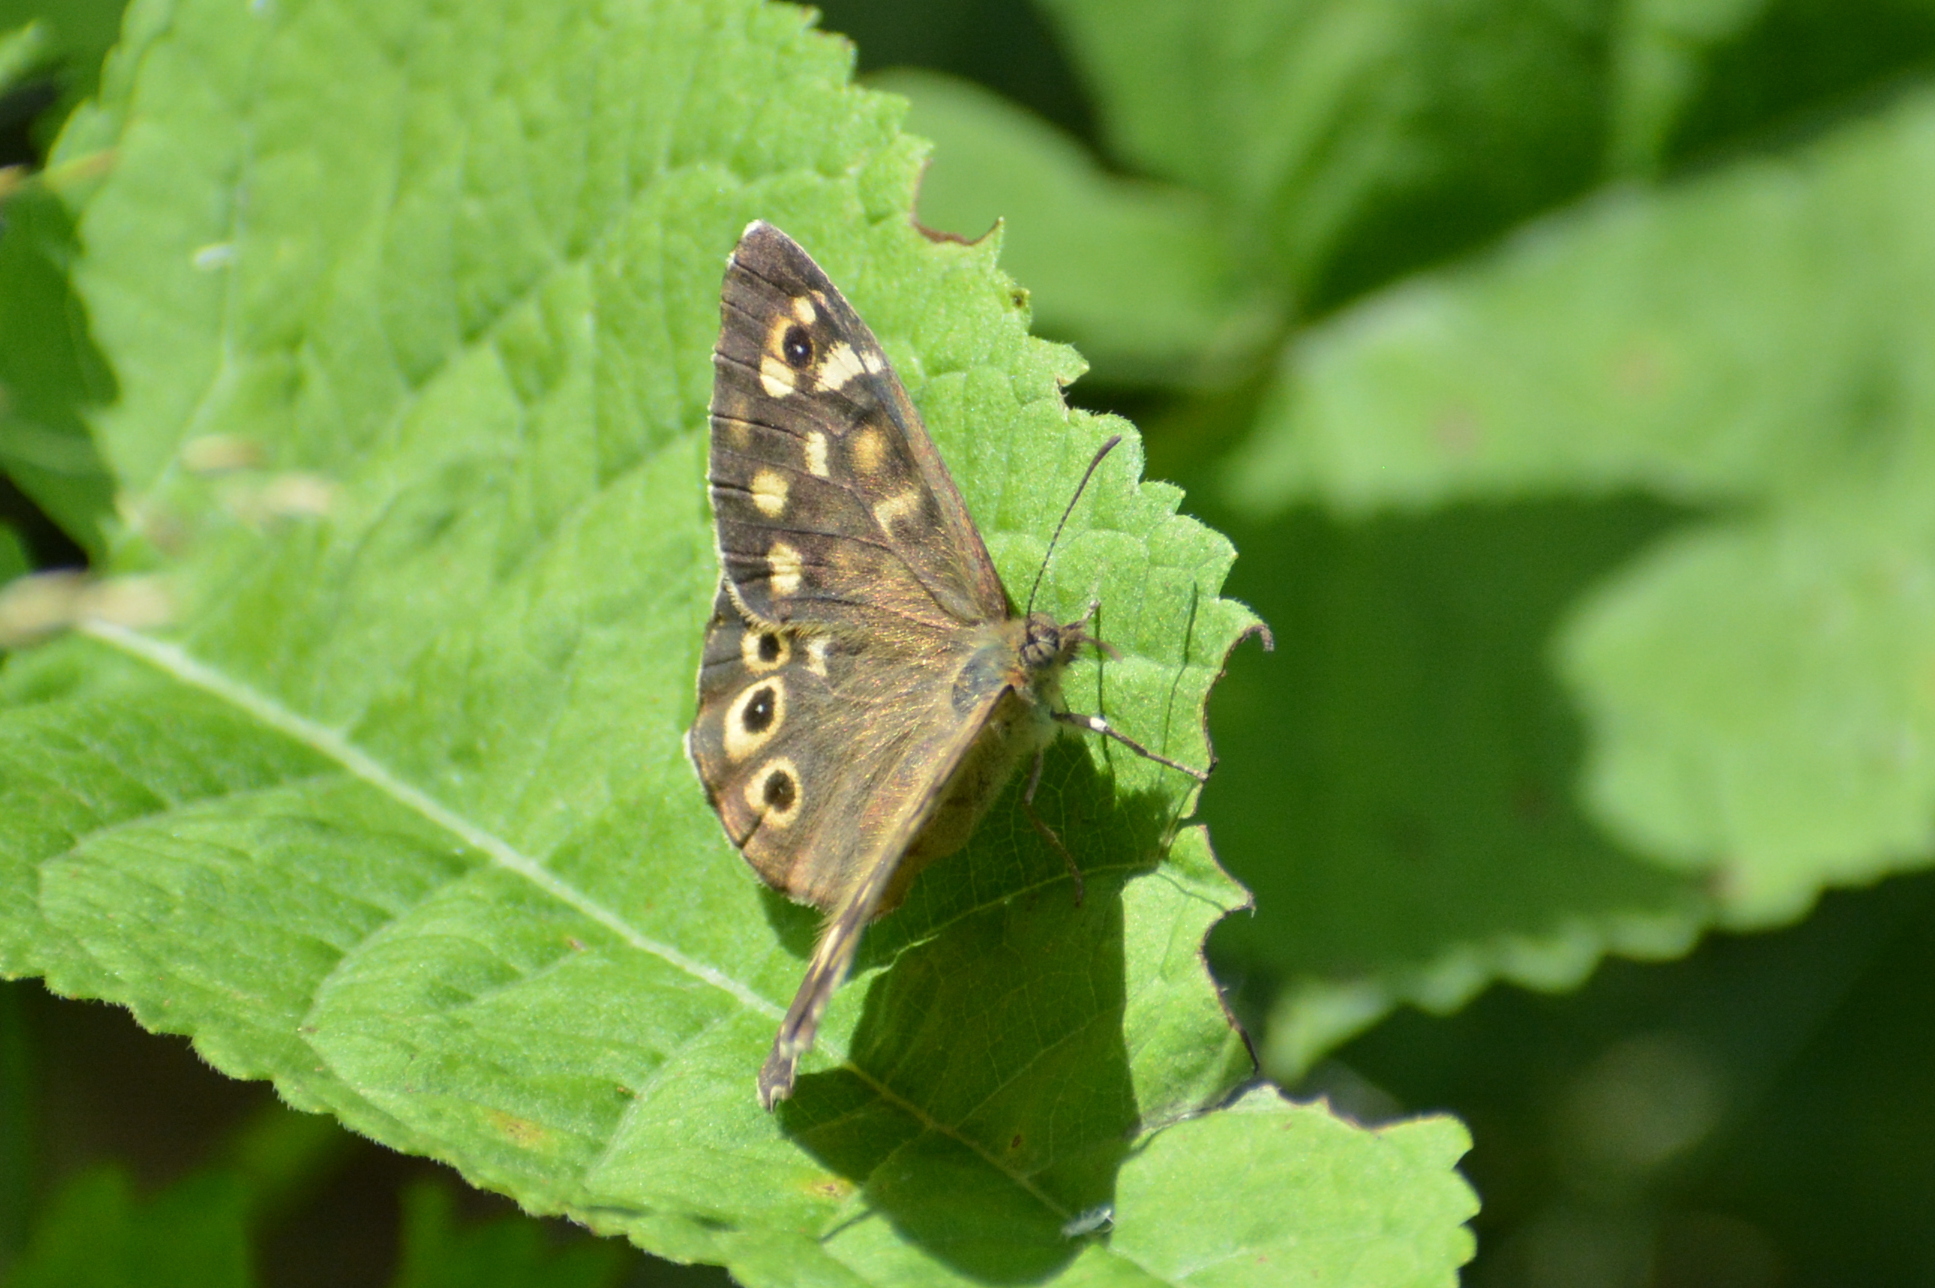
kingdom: Animalia
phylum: Arthropoda
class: Insecta
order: Lepidoptera
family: Nymphalidae
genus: Pararge
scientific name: Pararge aegeria
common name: Speckled wood
